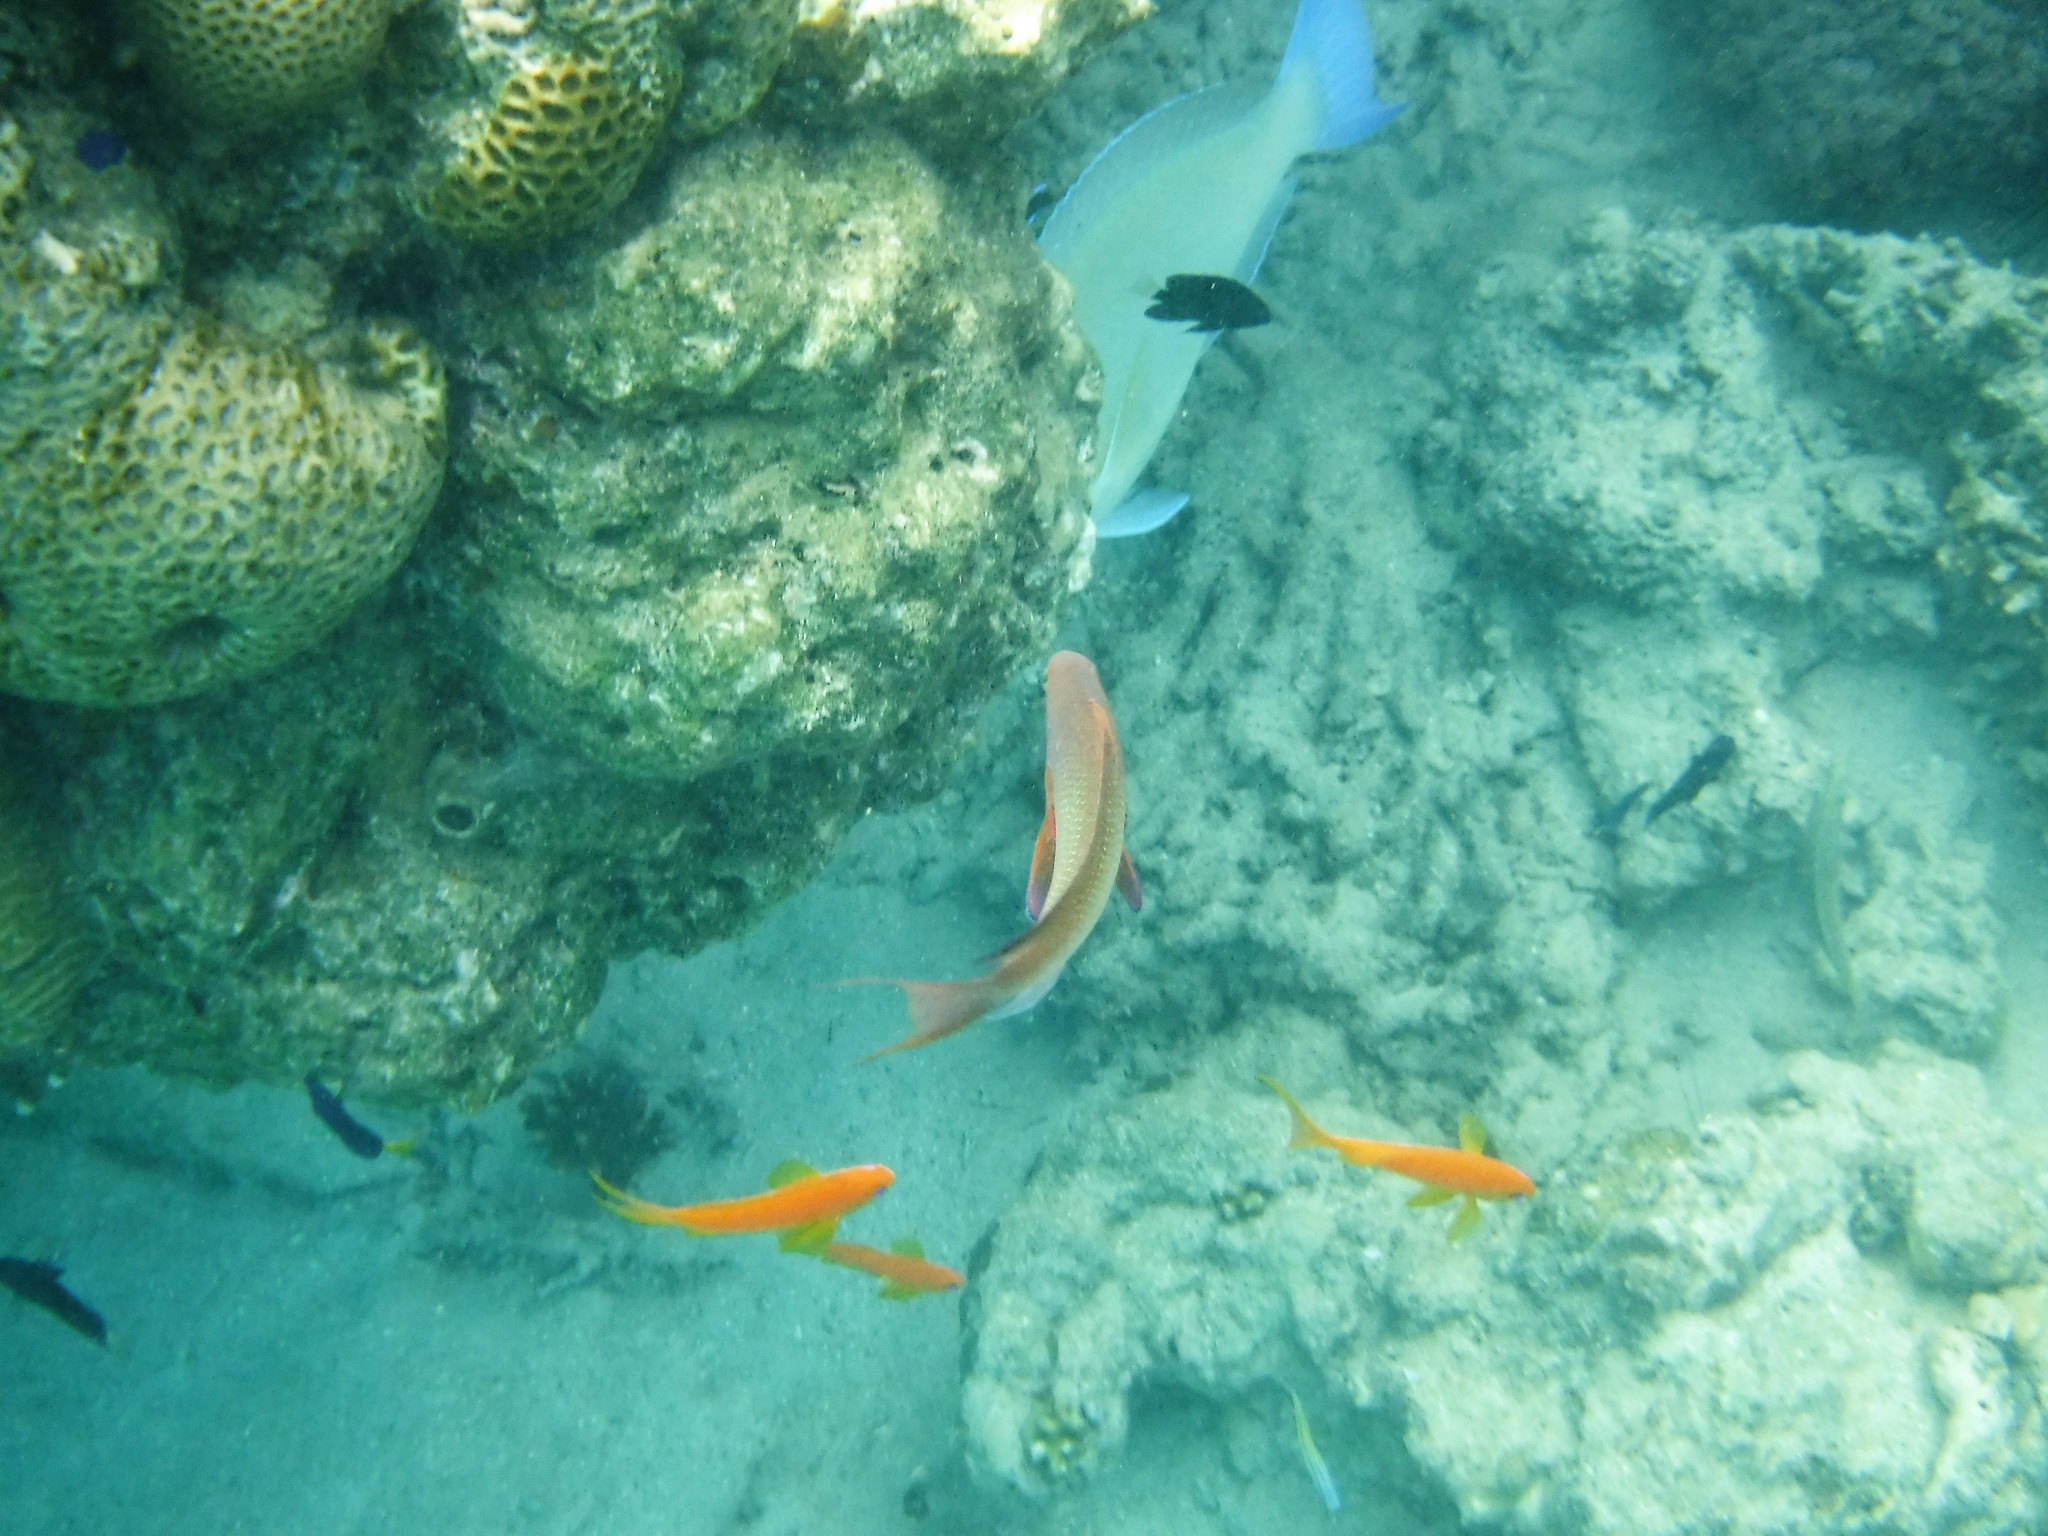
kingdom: Animalia
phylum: Chordata
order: Perciformes
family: Serranidae
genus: Pseudanthias
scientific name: Pseudanthias squamipinnis
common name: Scalefin anthias
